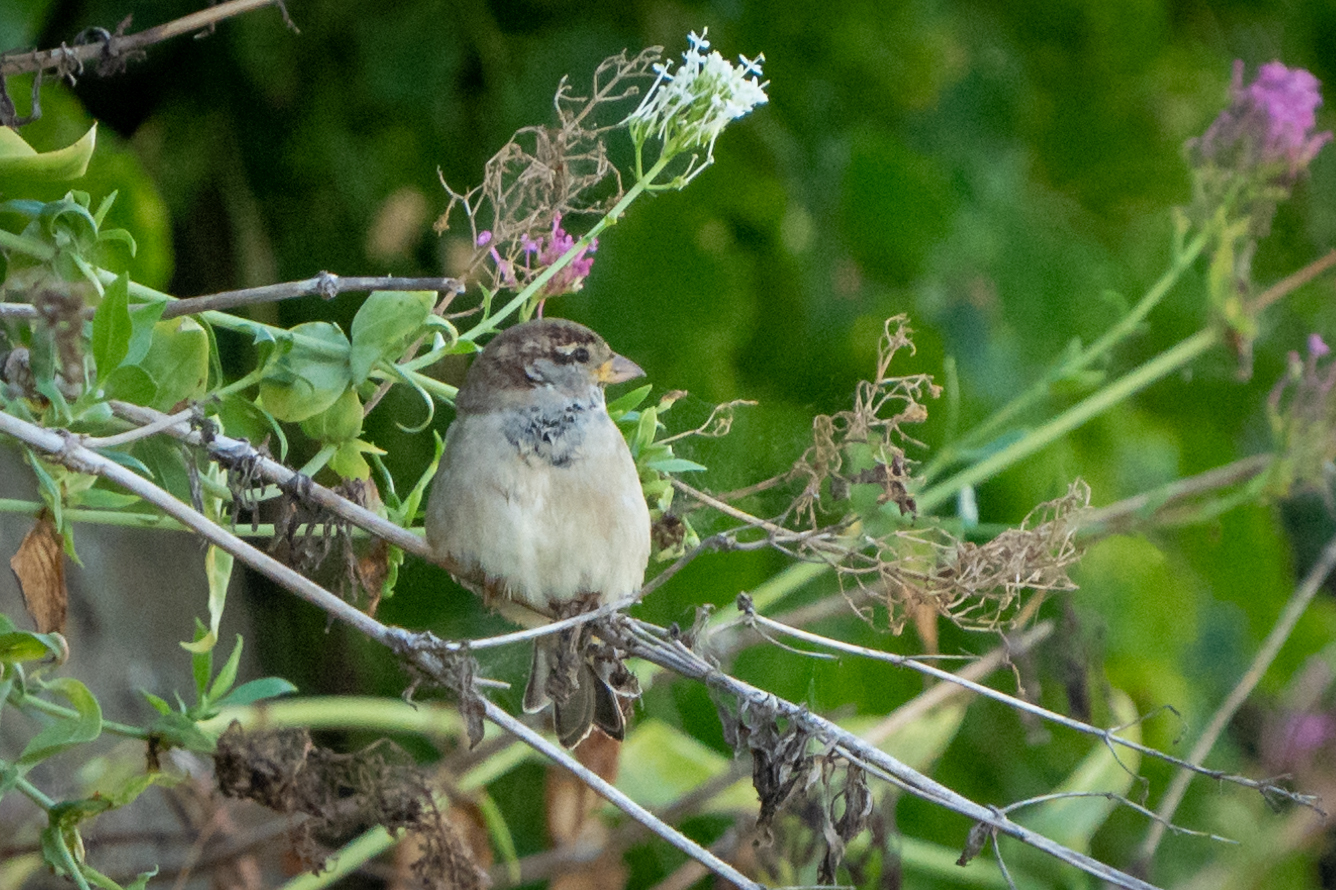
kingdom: Animalia
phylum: Chordata
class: Aves
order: Passeriformes
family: Passeridae
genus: Passer
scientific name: Passer italiae
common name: Italian sparrow
